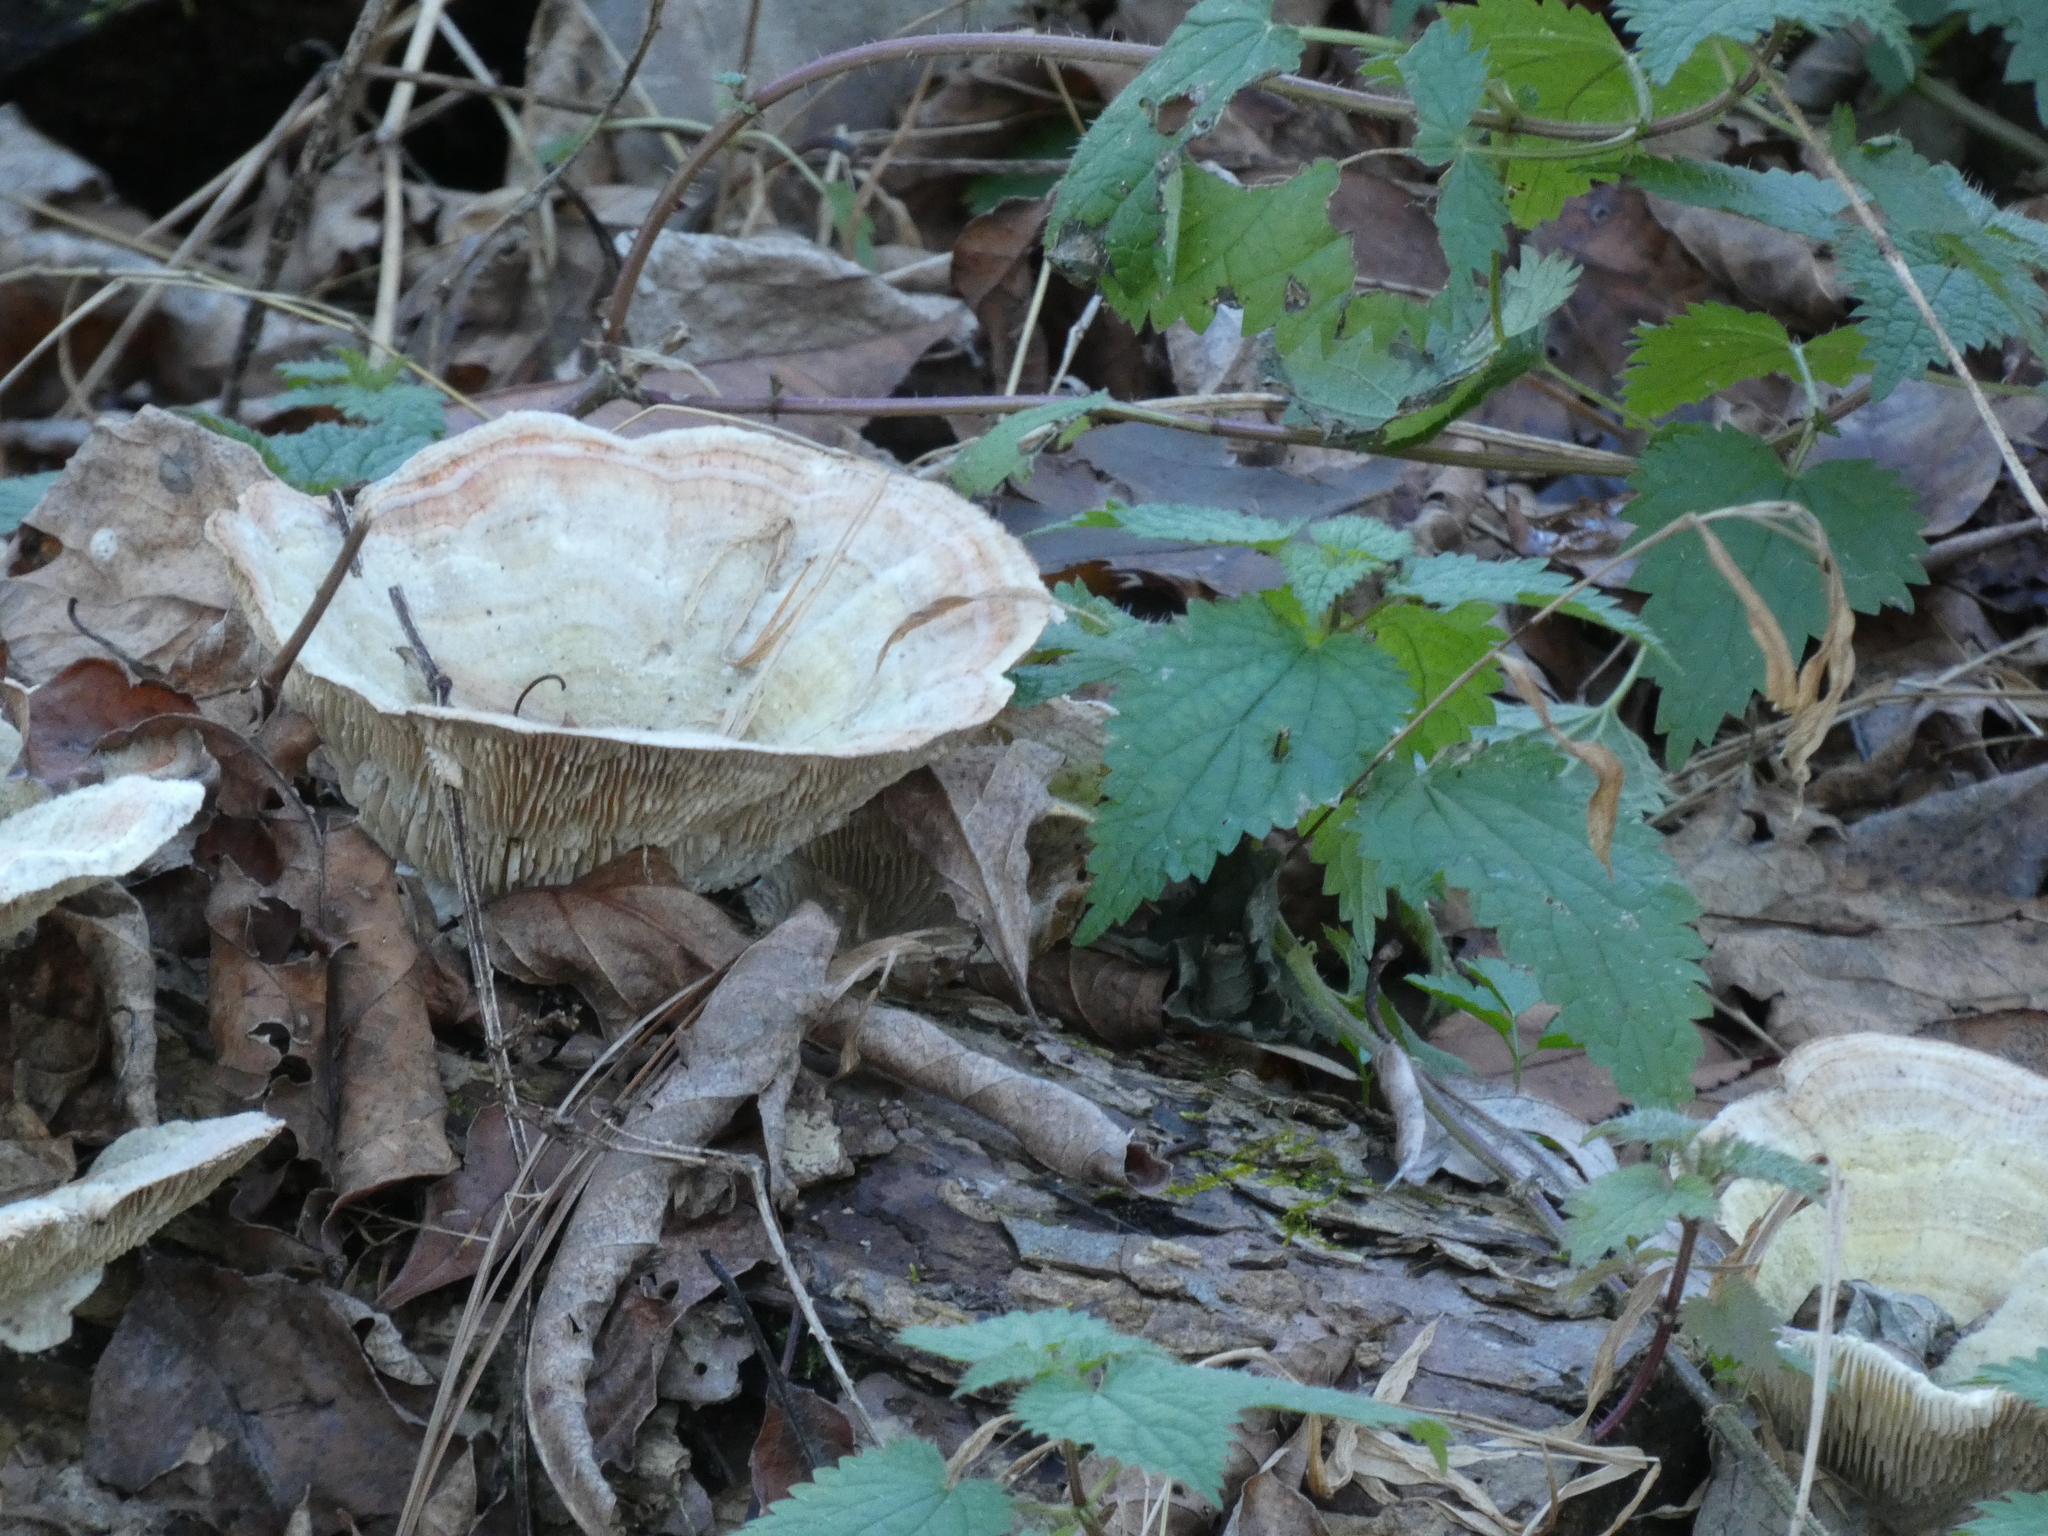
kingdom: Fungi
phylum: Basidiomycota
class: Agaricomycetes
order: Polyporales
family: Polyporaceae
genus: Lenzites
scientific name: Lenzites betulinus
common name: Birch mazegill
